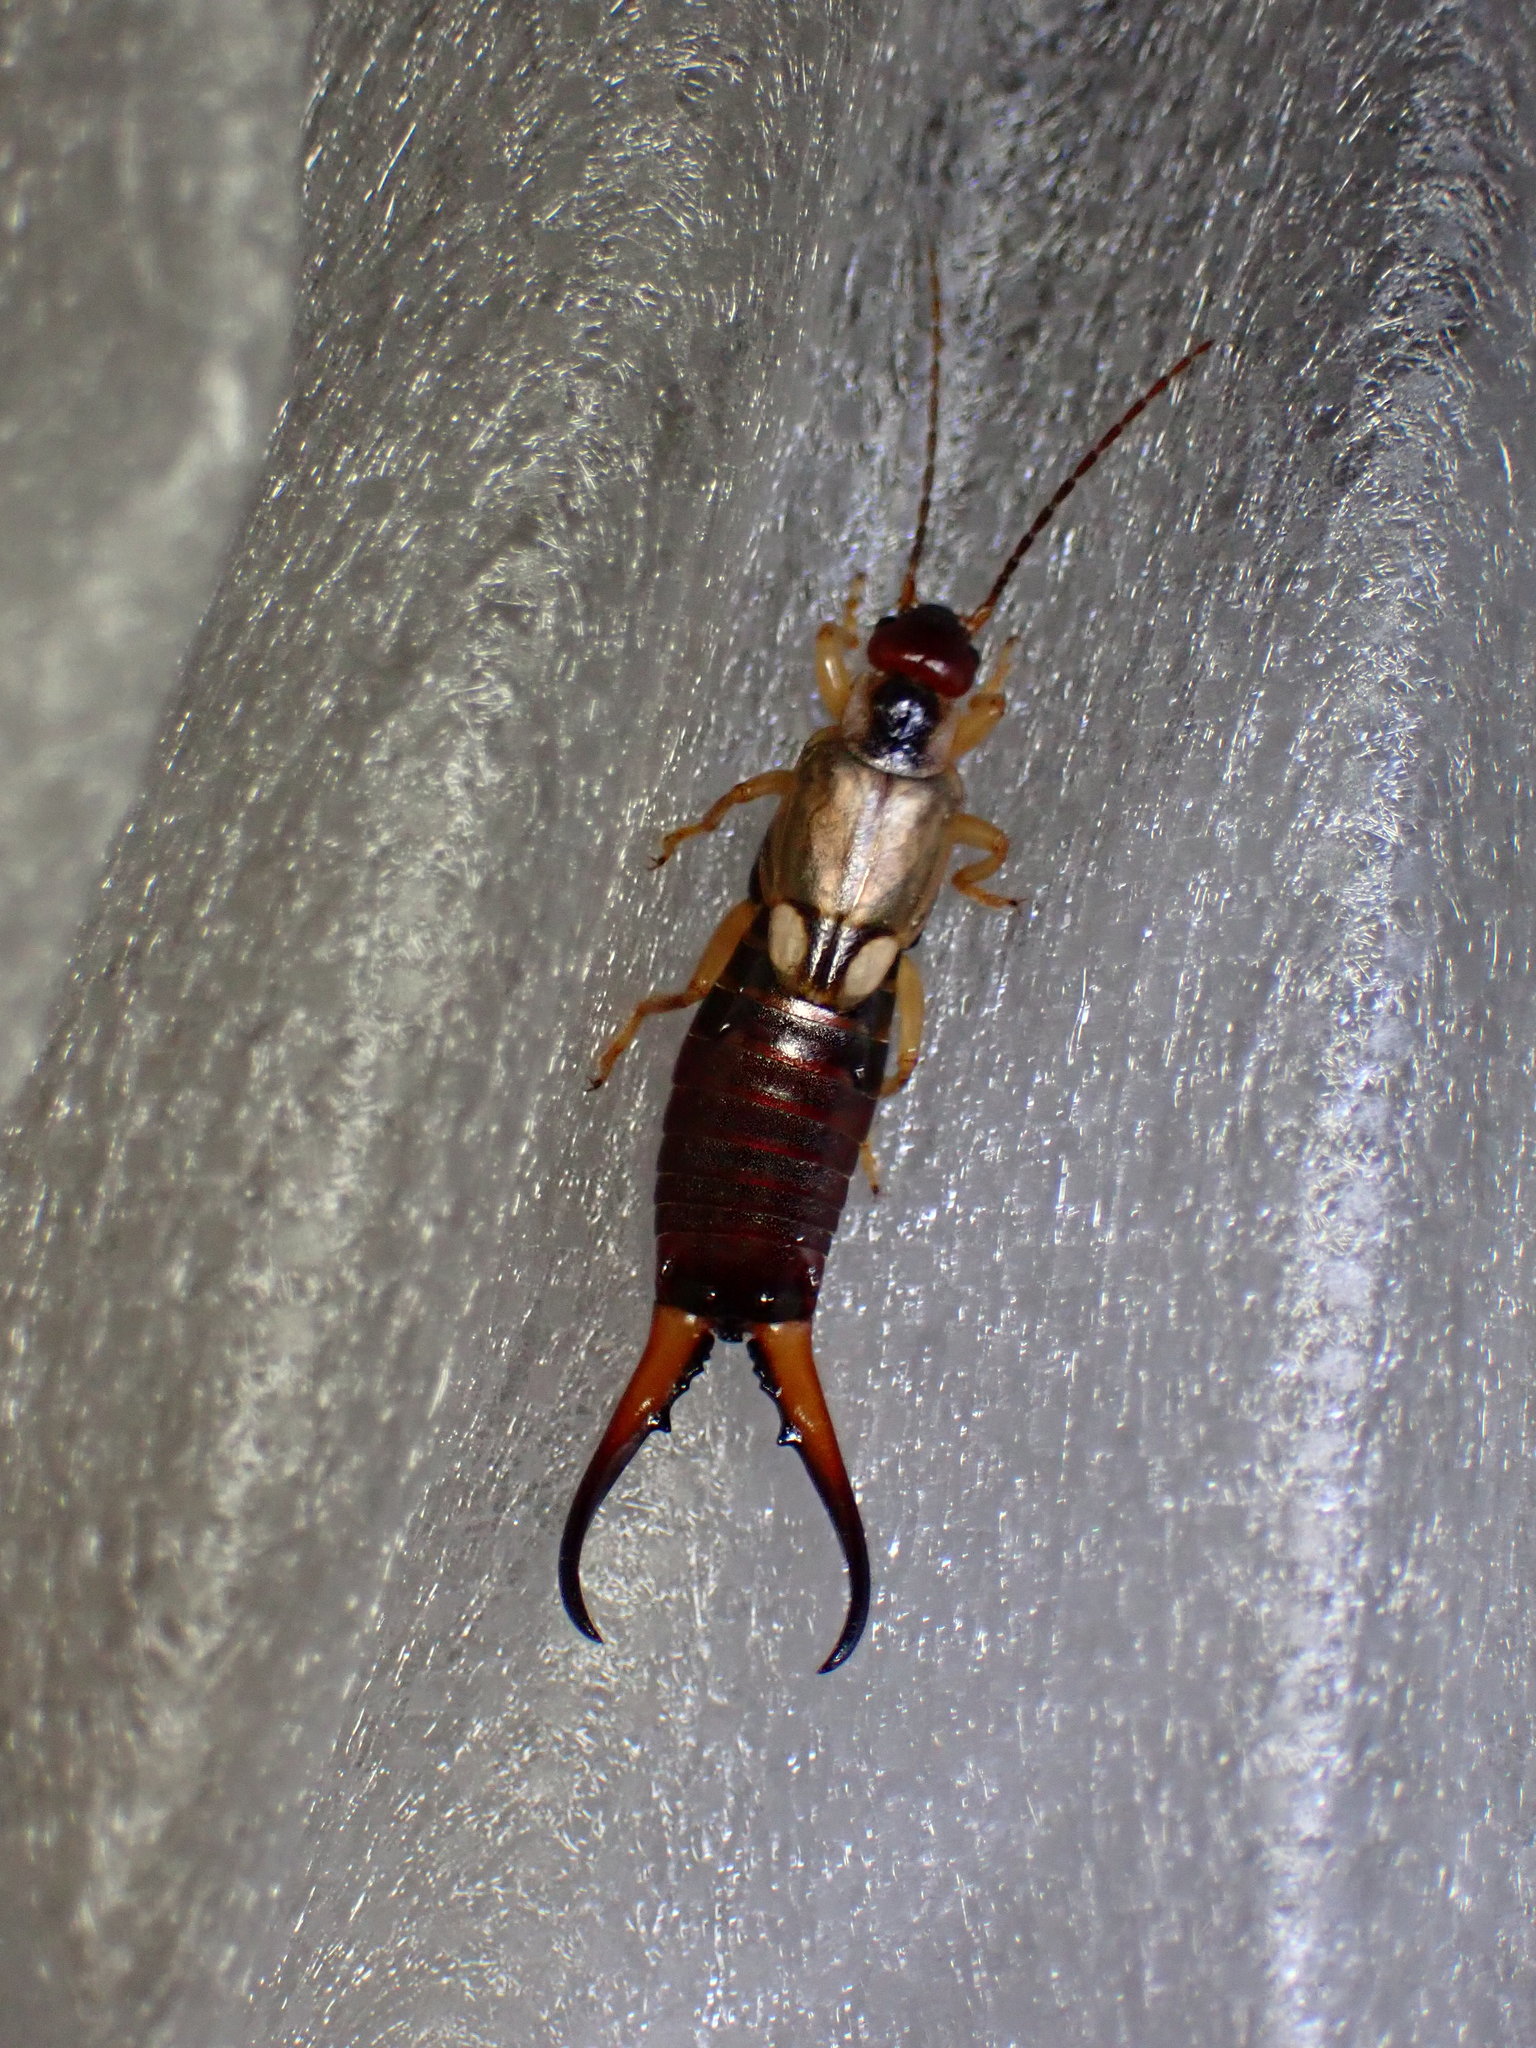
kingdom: Animalia
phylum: Arthropoda
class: Insecta
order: Dermaptera
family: Forficulidae
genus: Forficula
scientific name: Forficula
